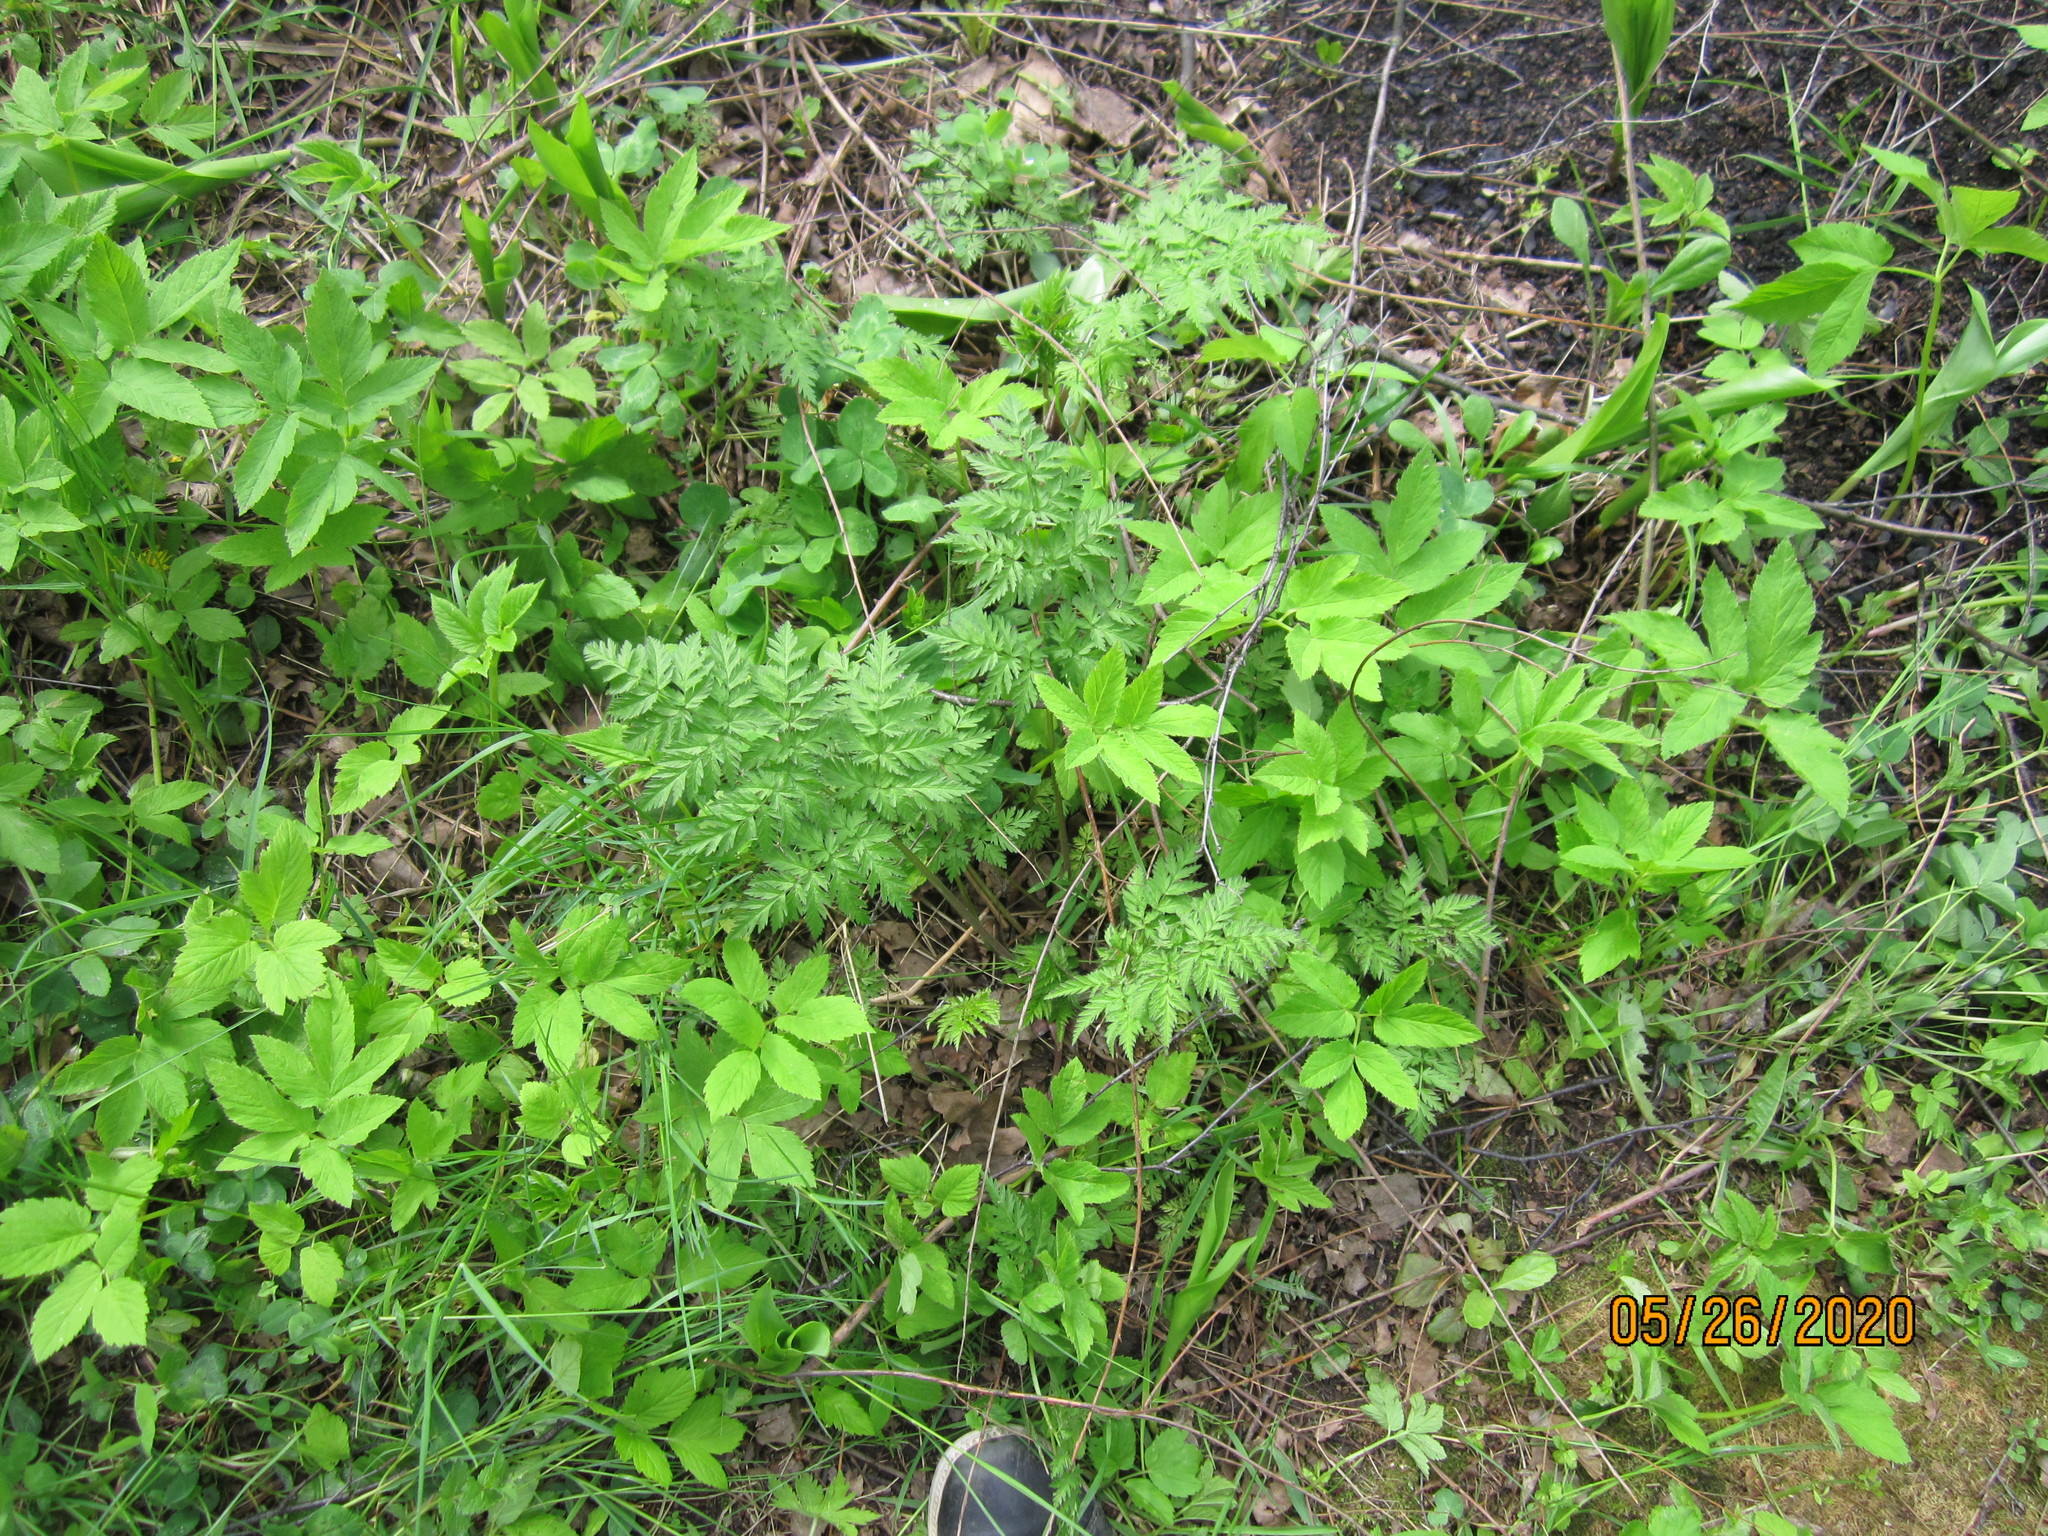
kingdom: Plantae
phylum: Tracheophyta
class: Magnoliopsida
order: Apiales
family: Apiaceae
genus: Anthriscus
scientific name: Anthriscus sylvestris
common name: Cow parsley
